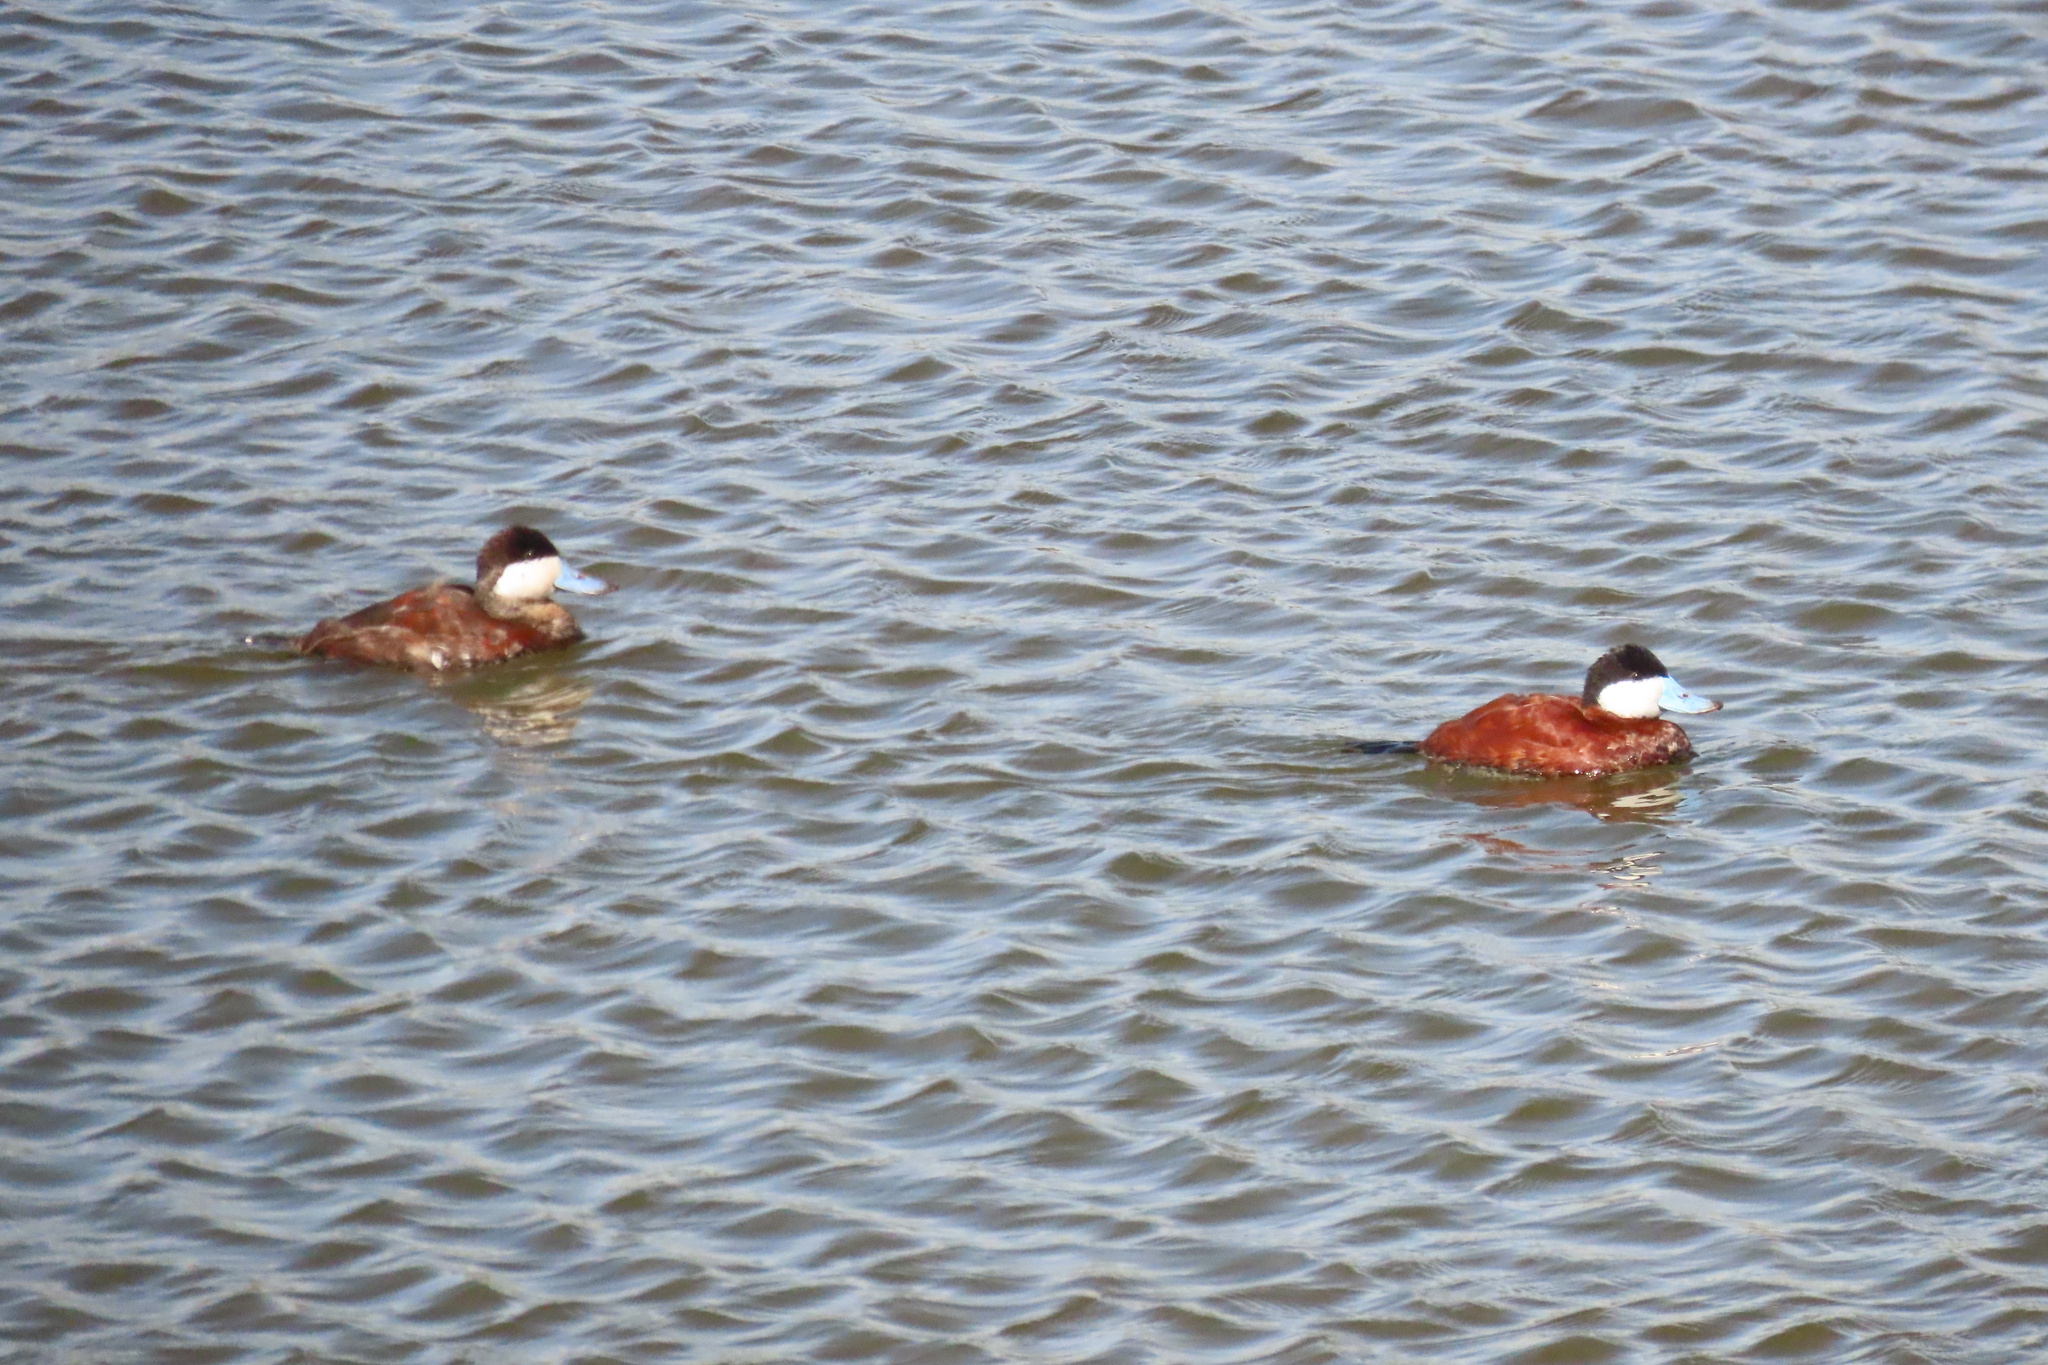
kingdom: Animalia
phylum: Chordata
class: Aves
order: Anseriformes
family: Anatidae
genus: Oxyura
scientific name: Oxyura jamaicensis
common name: Ruddy duck
